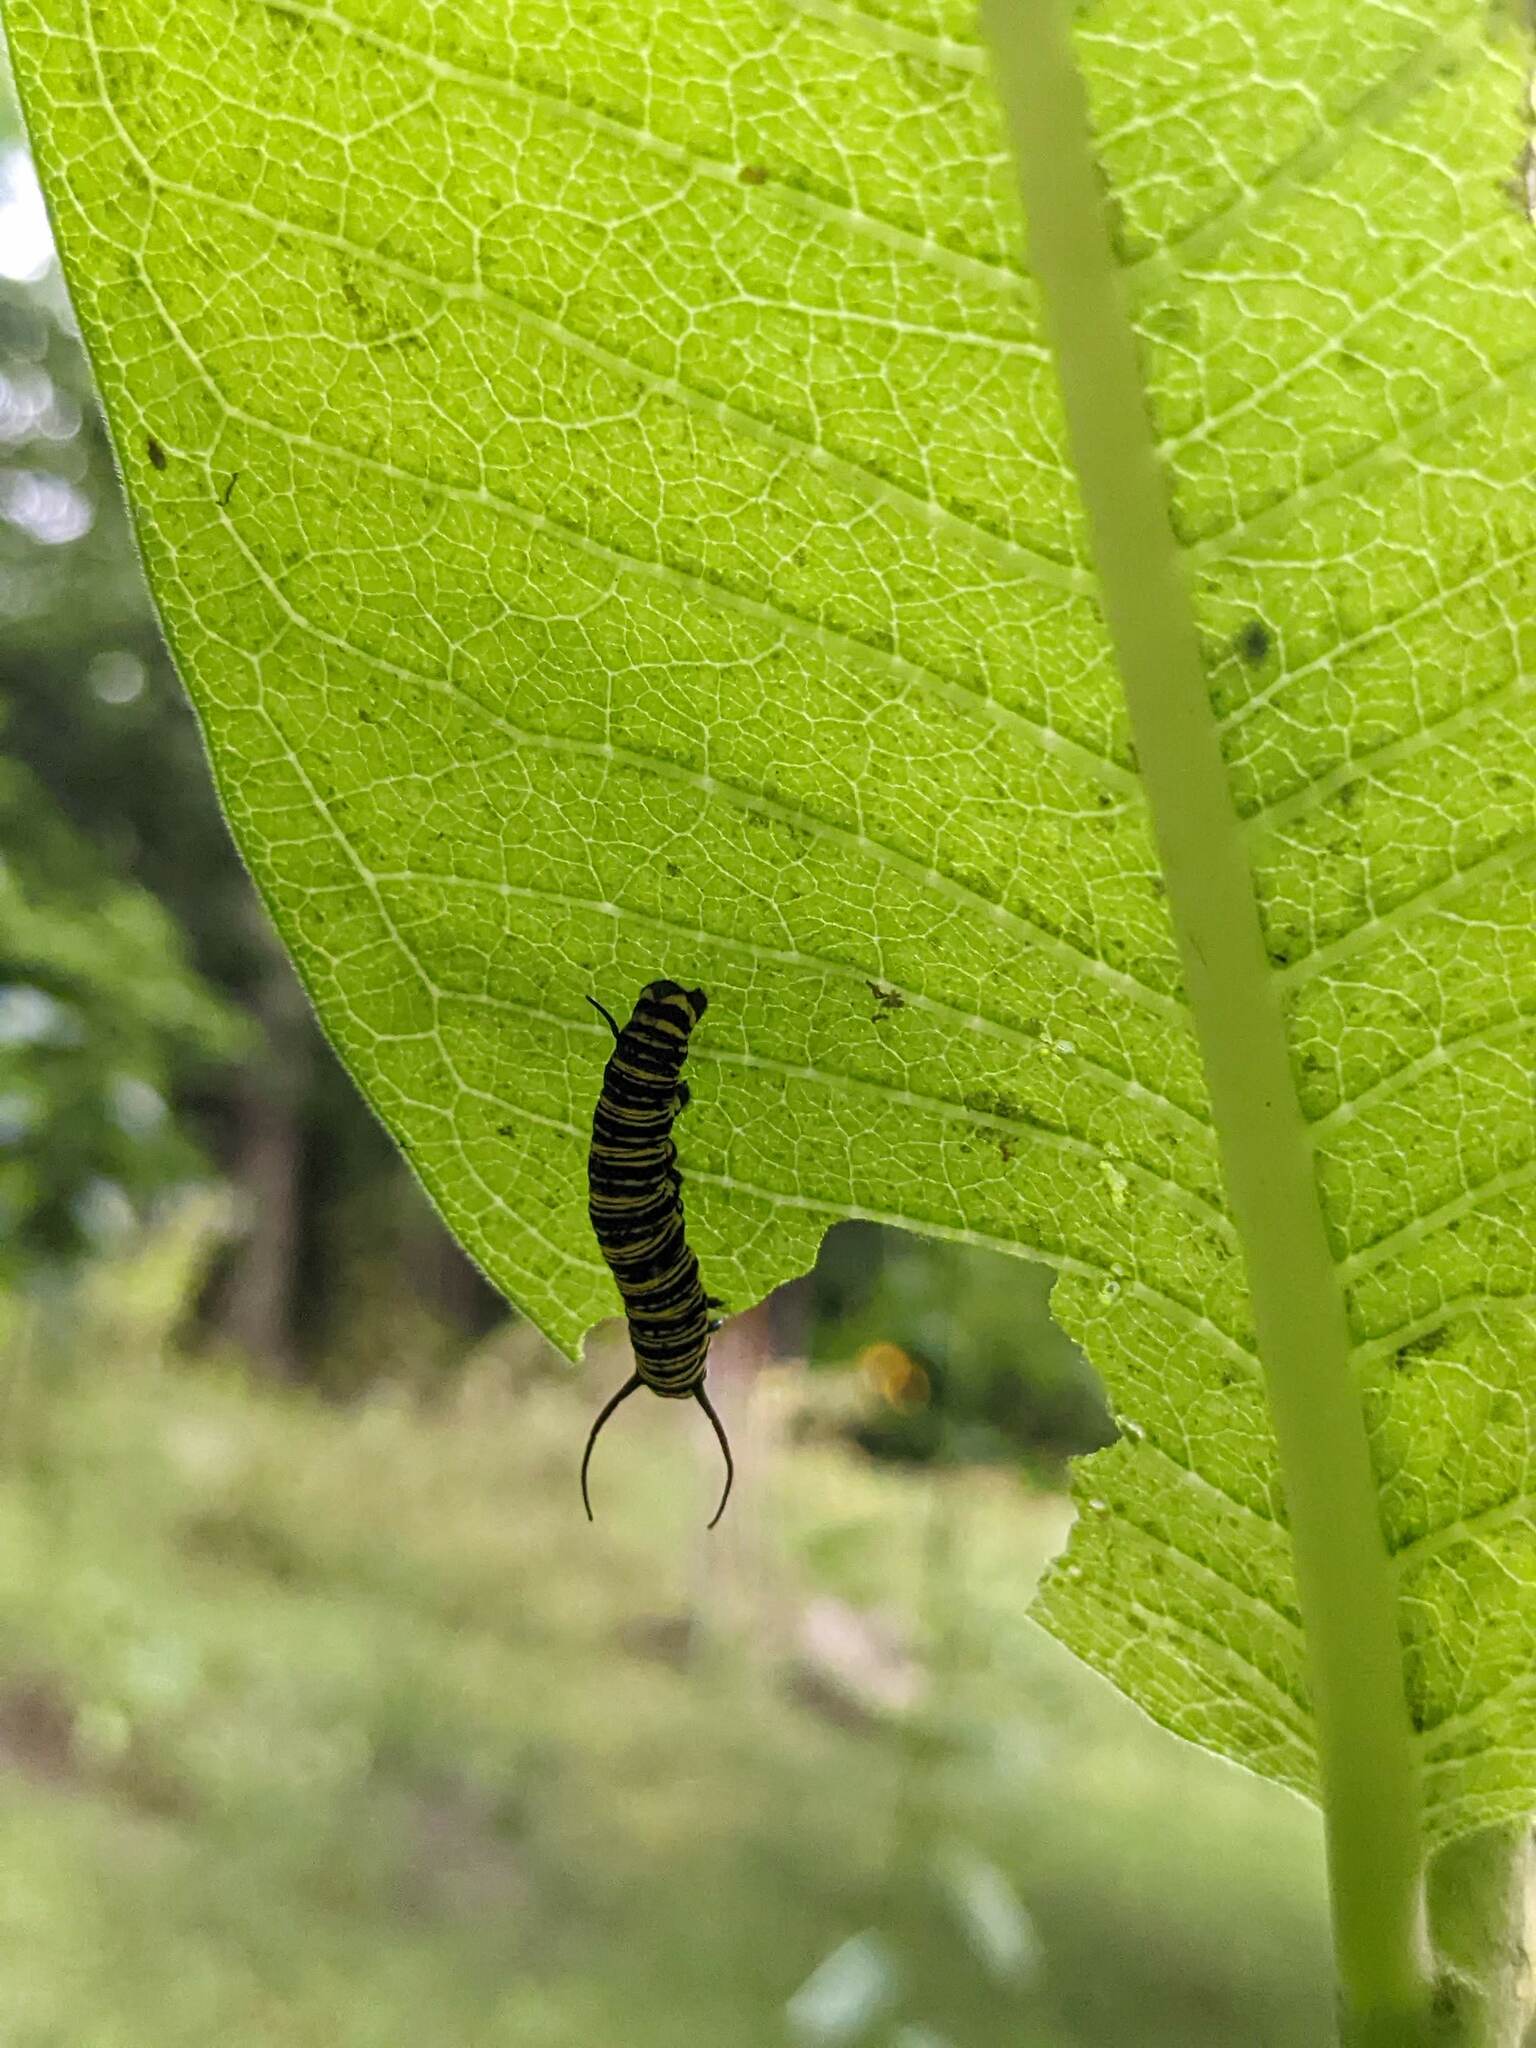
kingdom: Animalia
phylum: Arthropoda
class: Insecta
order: Lepidoptera
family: Nymphalidae
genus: Danaus
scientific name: Danaus plexippus
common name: Monarch
